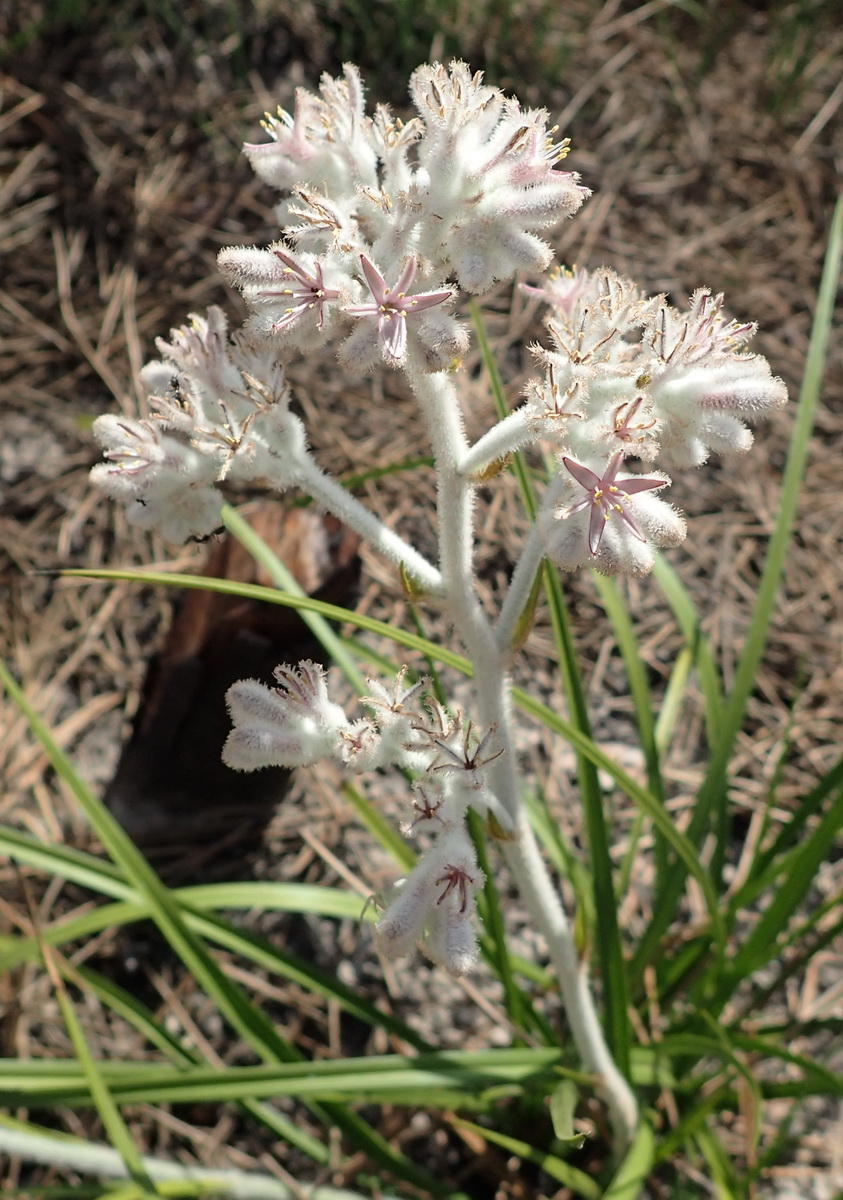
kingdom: Plantae
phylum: Tracheophyta
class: Liliopsida
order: Asparagales
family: Lanariaceae
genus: Lanaria
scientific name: Lanaria lanata
